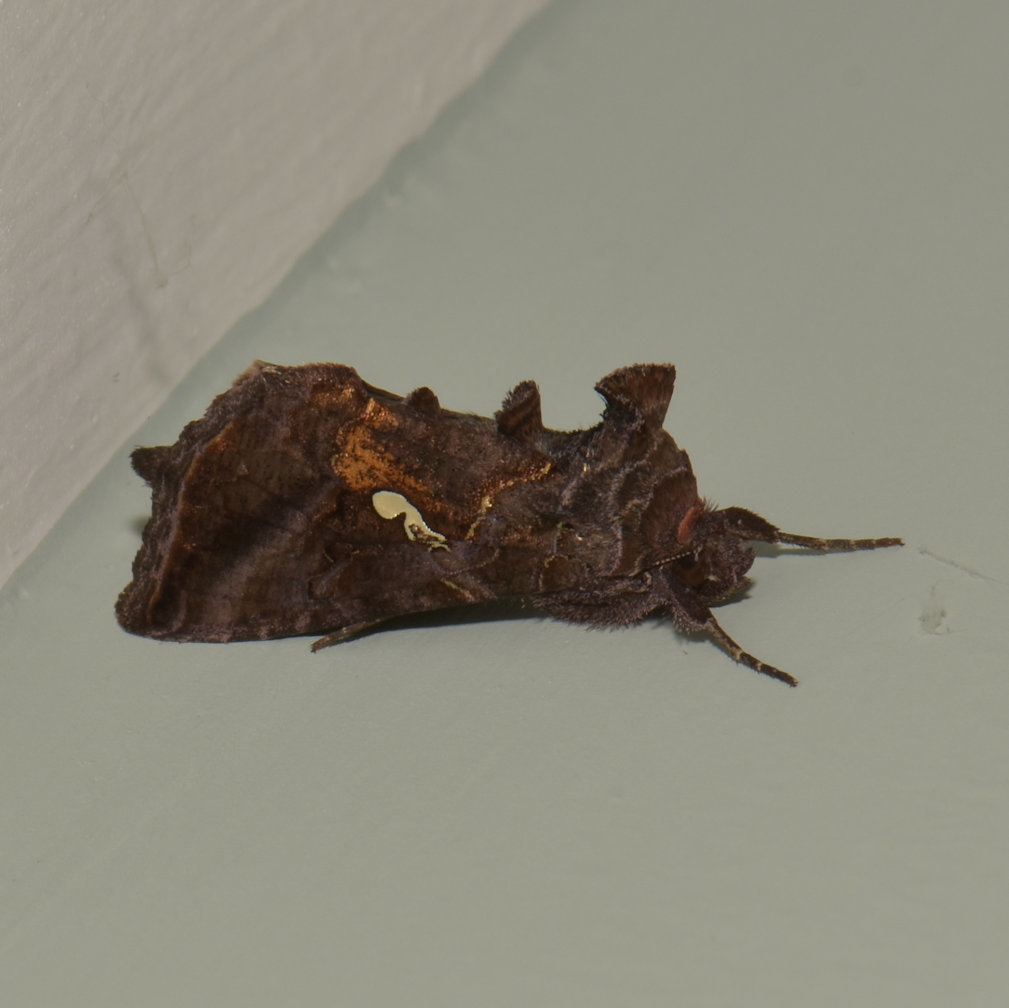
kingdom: Animalia
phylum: Arthropoda
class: Insecta
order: Lepidoptera
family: Noctuidae
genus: Autographa
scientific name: Autographa precationis
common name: Common looper moth
